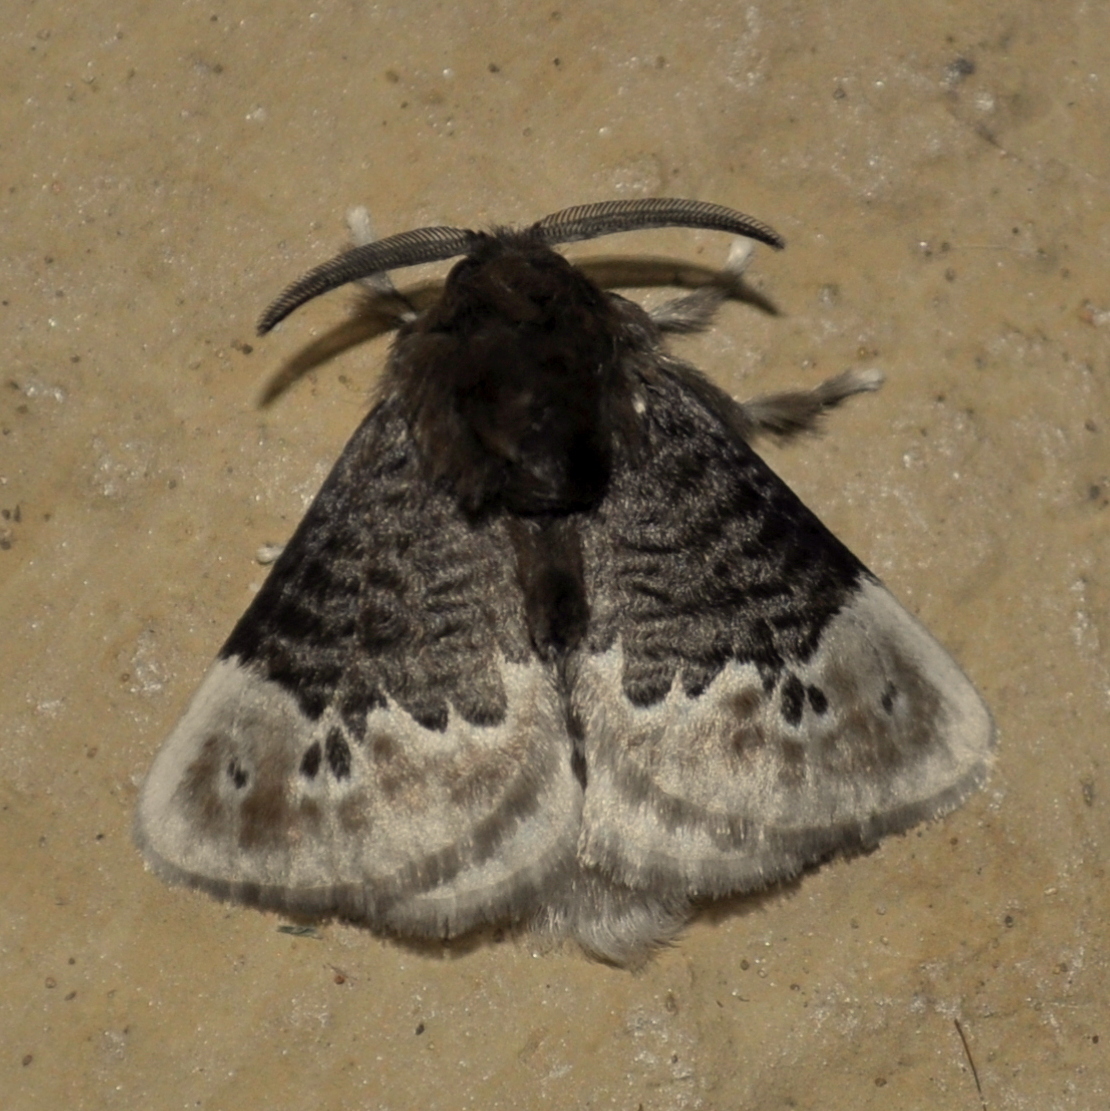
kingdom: Animalia
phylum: Arthropoda
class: Insecta
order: Lepidoptera
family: Megalopygidae
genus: Podalia
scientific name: Podalia dimidiatus
